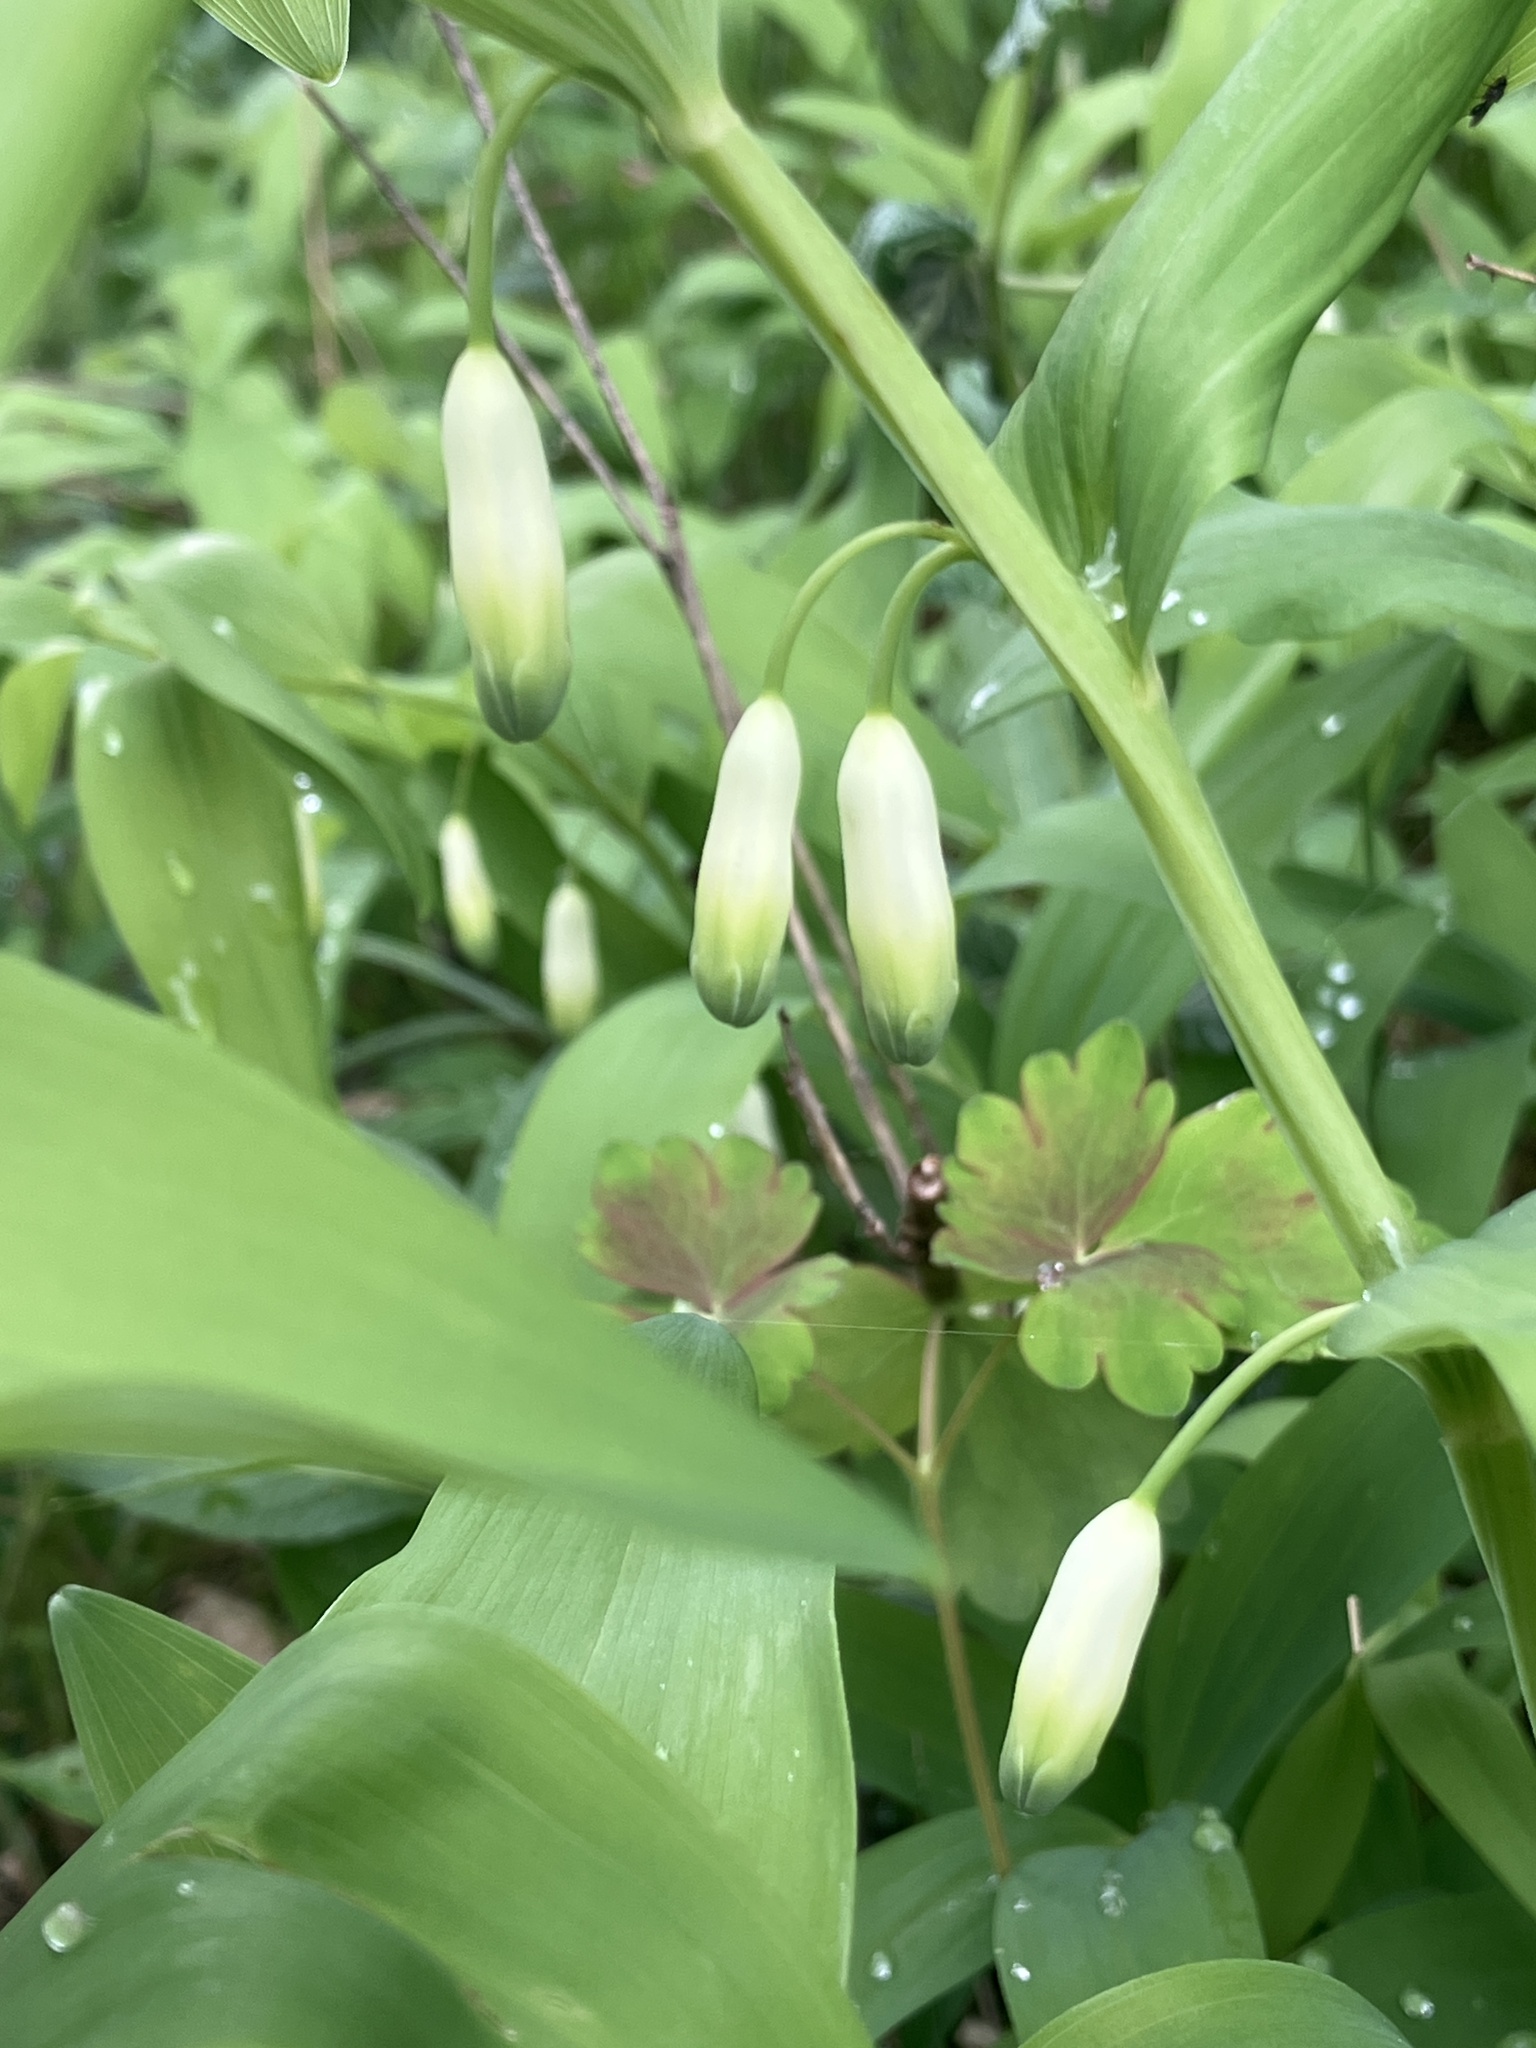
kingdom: Plantae
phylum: Tracheophyta
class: Liliopsida
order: Asparagales
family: Asparagaceae
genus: Polygonatum
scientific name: Polygonatum odoratum
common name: Angular solomon's-seal
